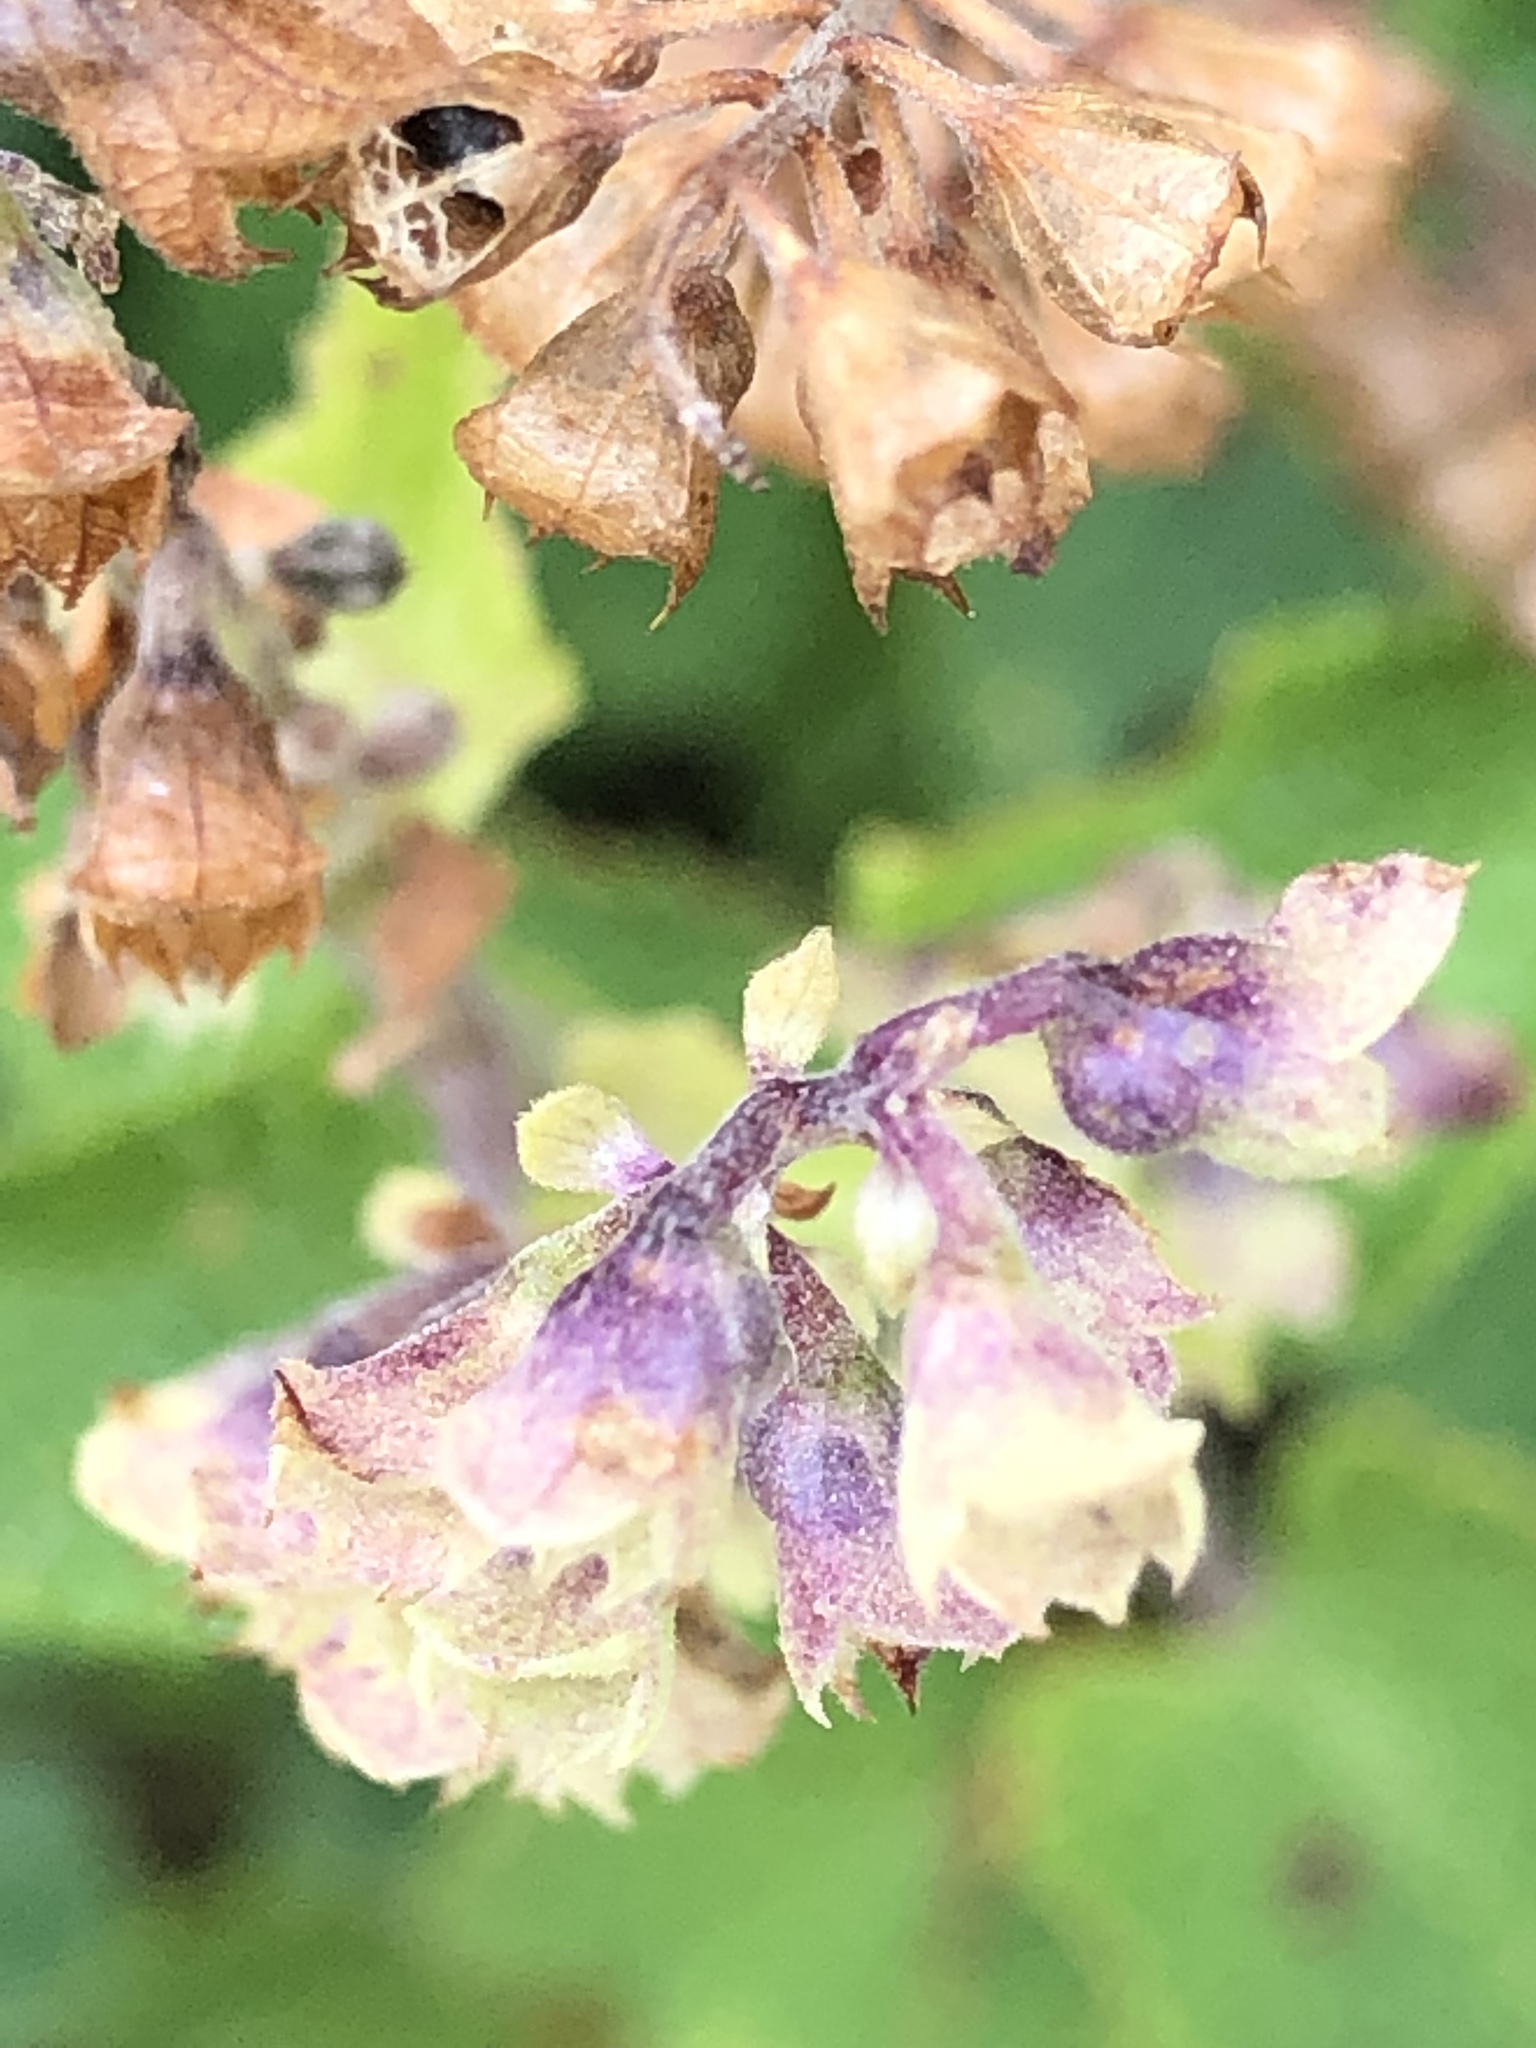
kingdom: Plantae
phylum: Tracheophyta
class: Magnoliopsida
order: Lamiales
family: Lamiaceae
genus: Teucrium
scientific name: Teucrium scorodonia
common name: Woodland germander
